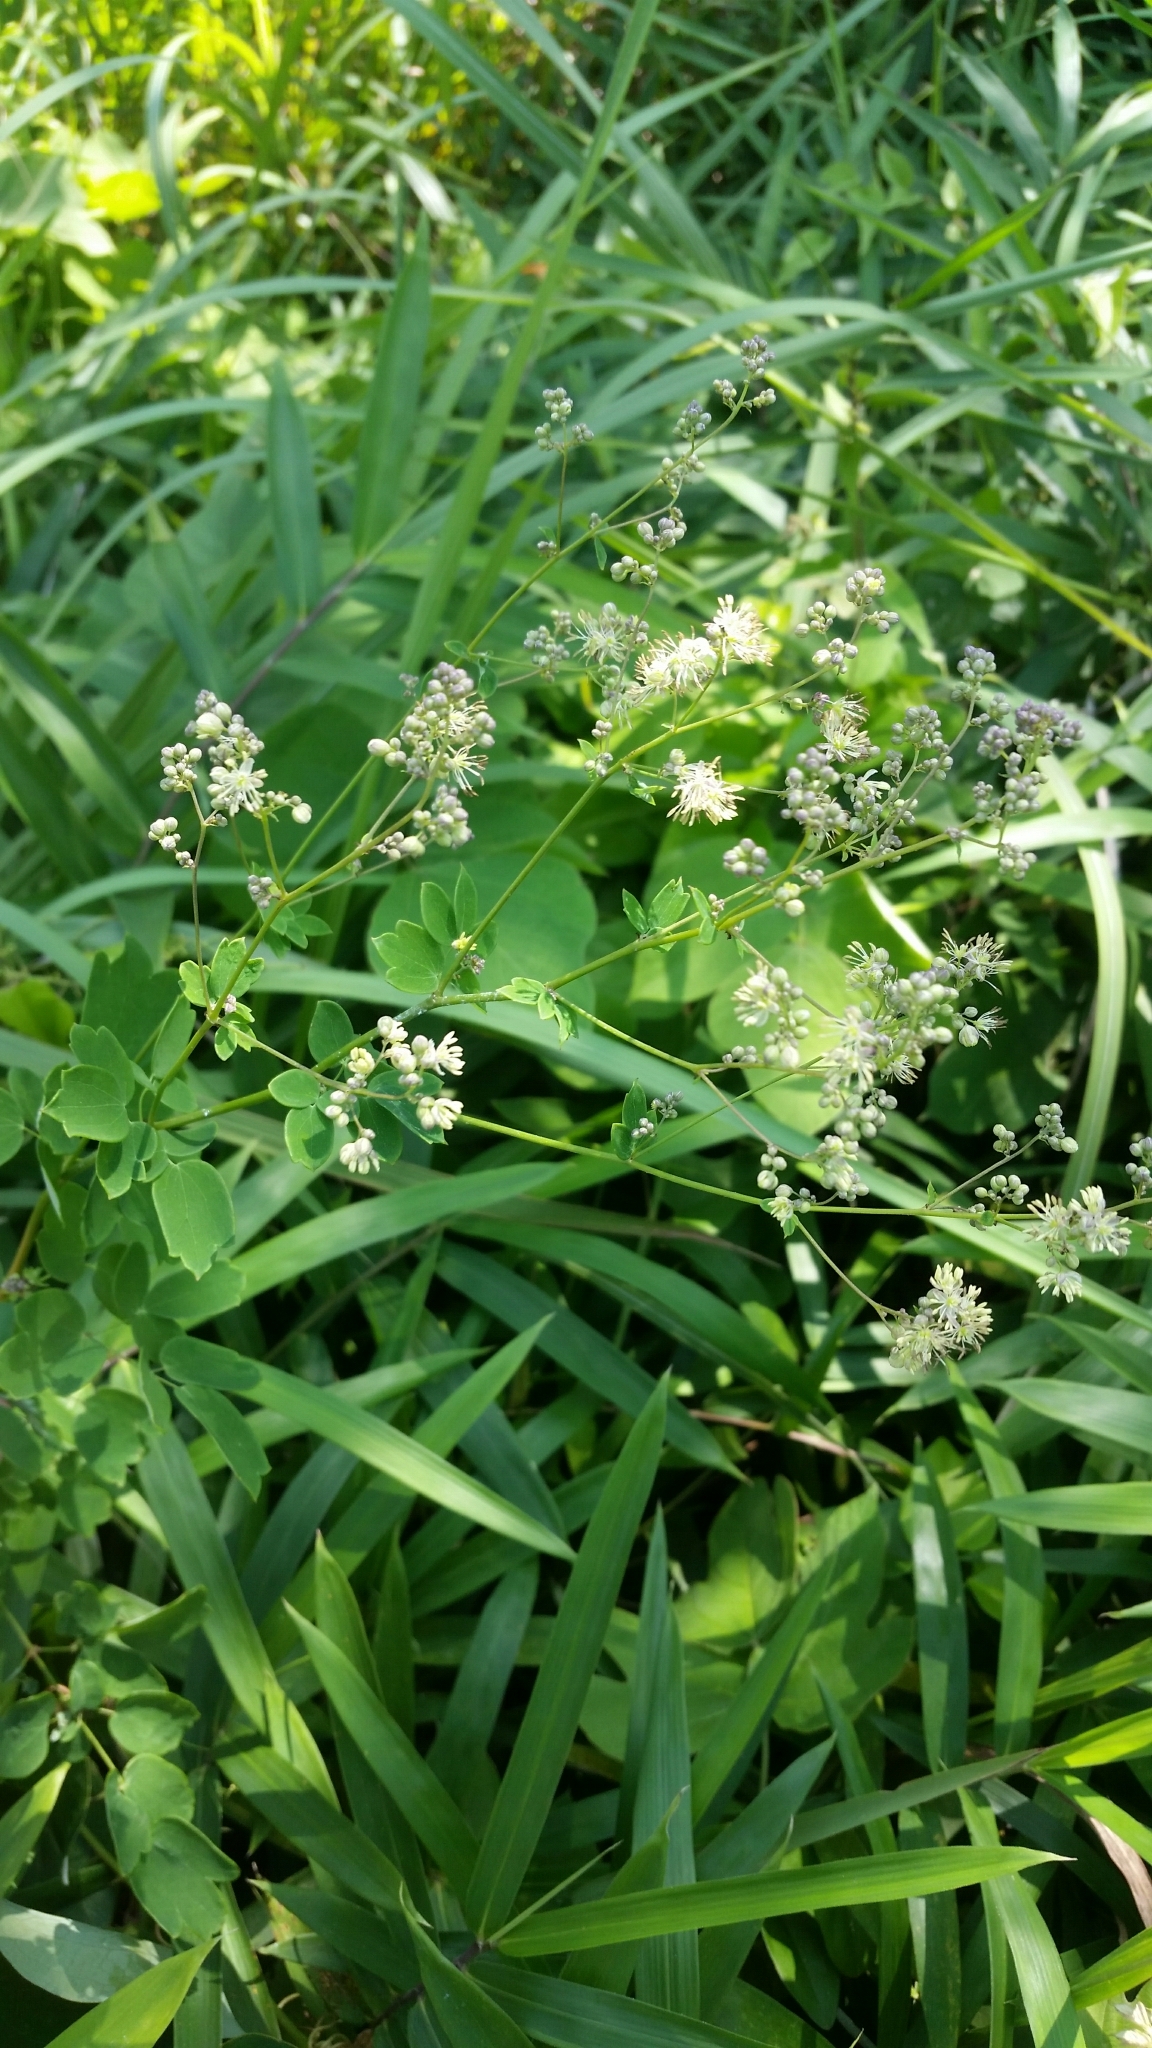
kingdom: Plantae
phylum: Tracheophyta
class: Magnoliopsida
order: Ranunculales
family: Ranunculaceae
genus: Thalictrum
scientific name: Thalictrum minus
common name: Lesser meadow-rue
